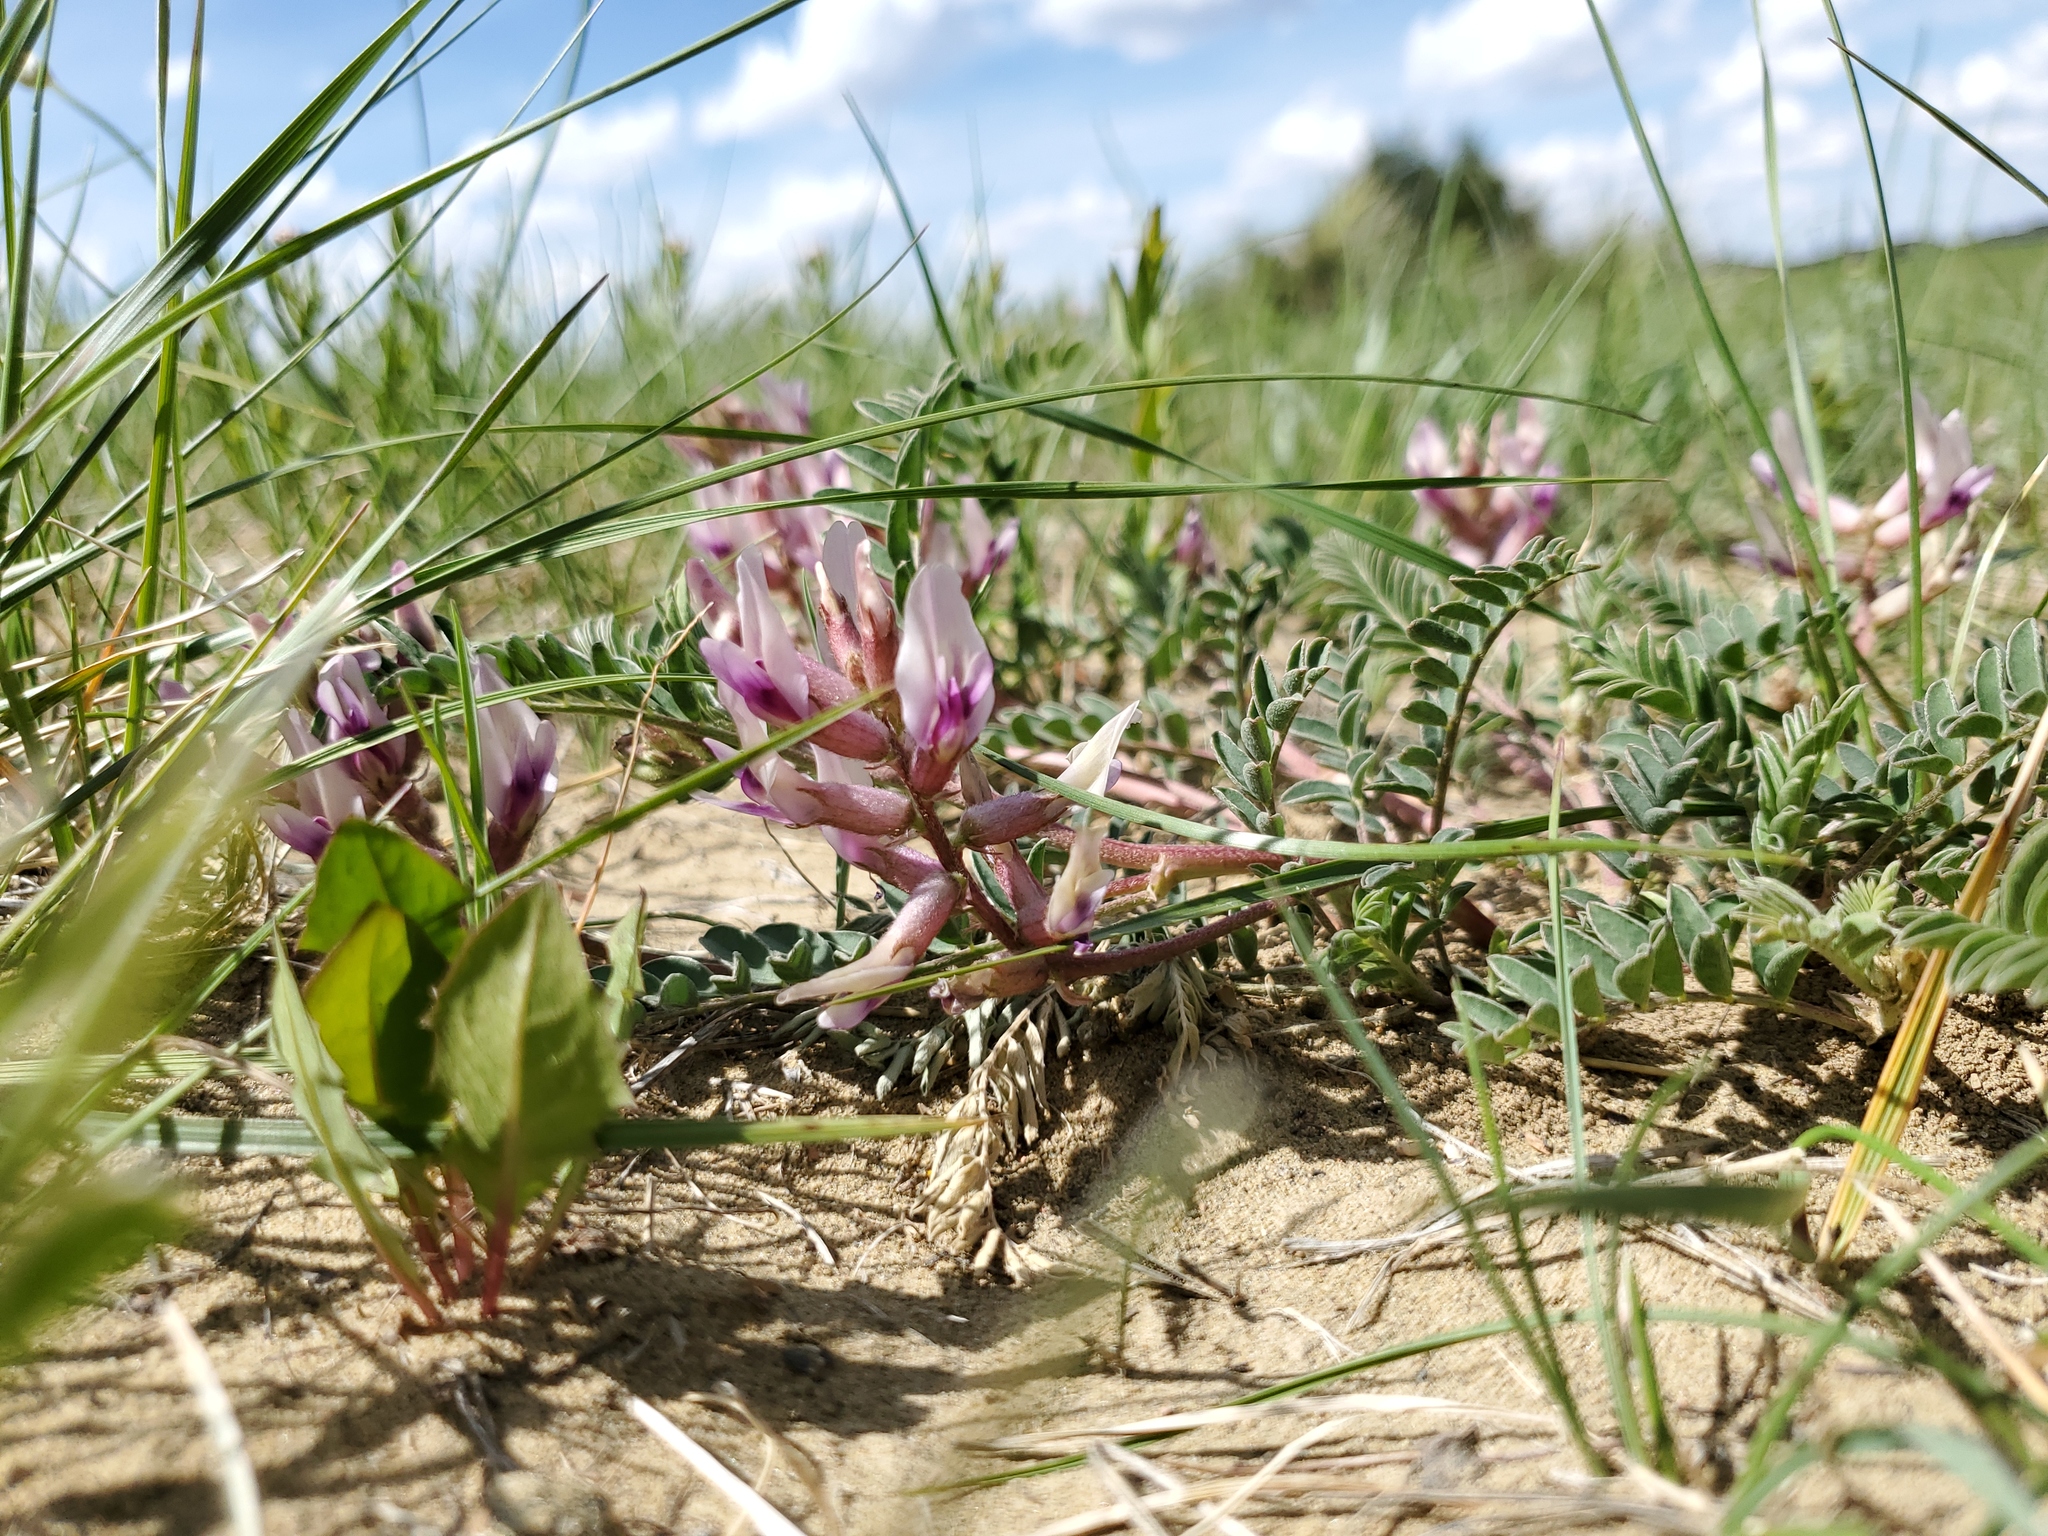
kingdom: Plantae
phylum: Tracheophyta
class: Magnoliopsida
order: Fabales
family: Fabaceae
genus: Astragalus
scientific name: Astragalus crassicarpus
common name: Ground-plum milk-vetch
